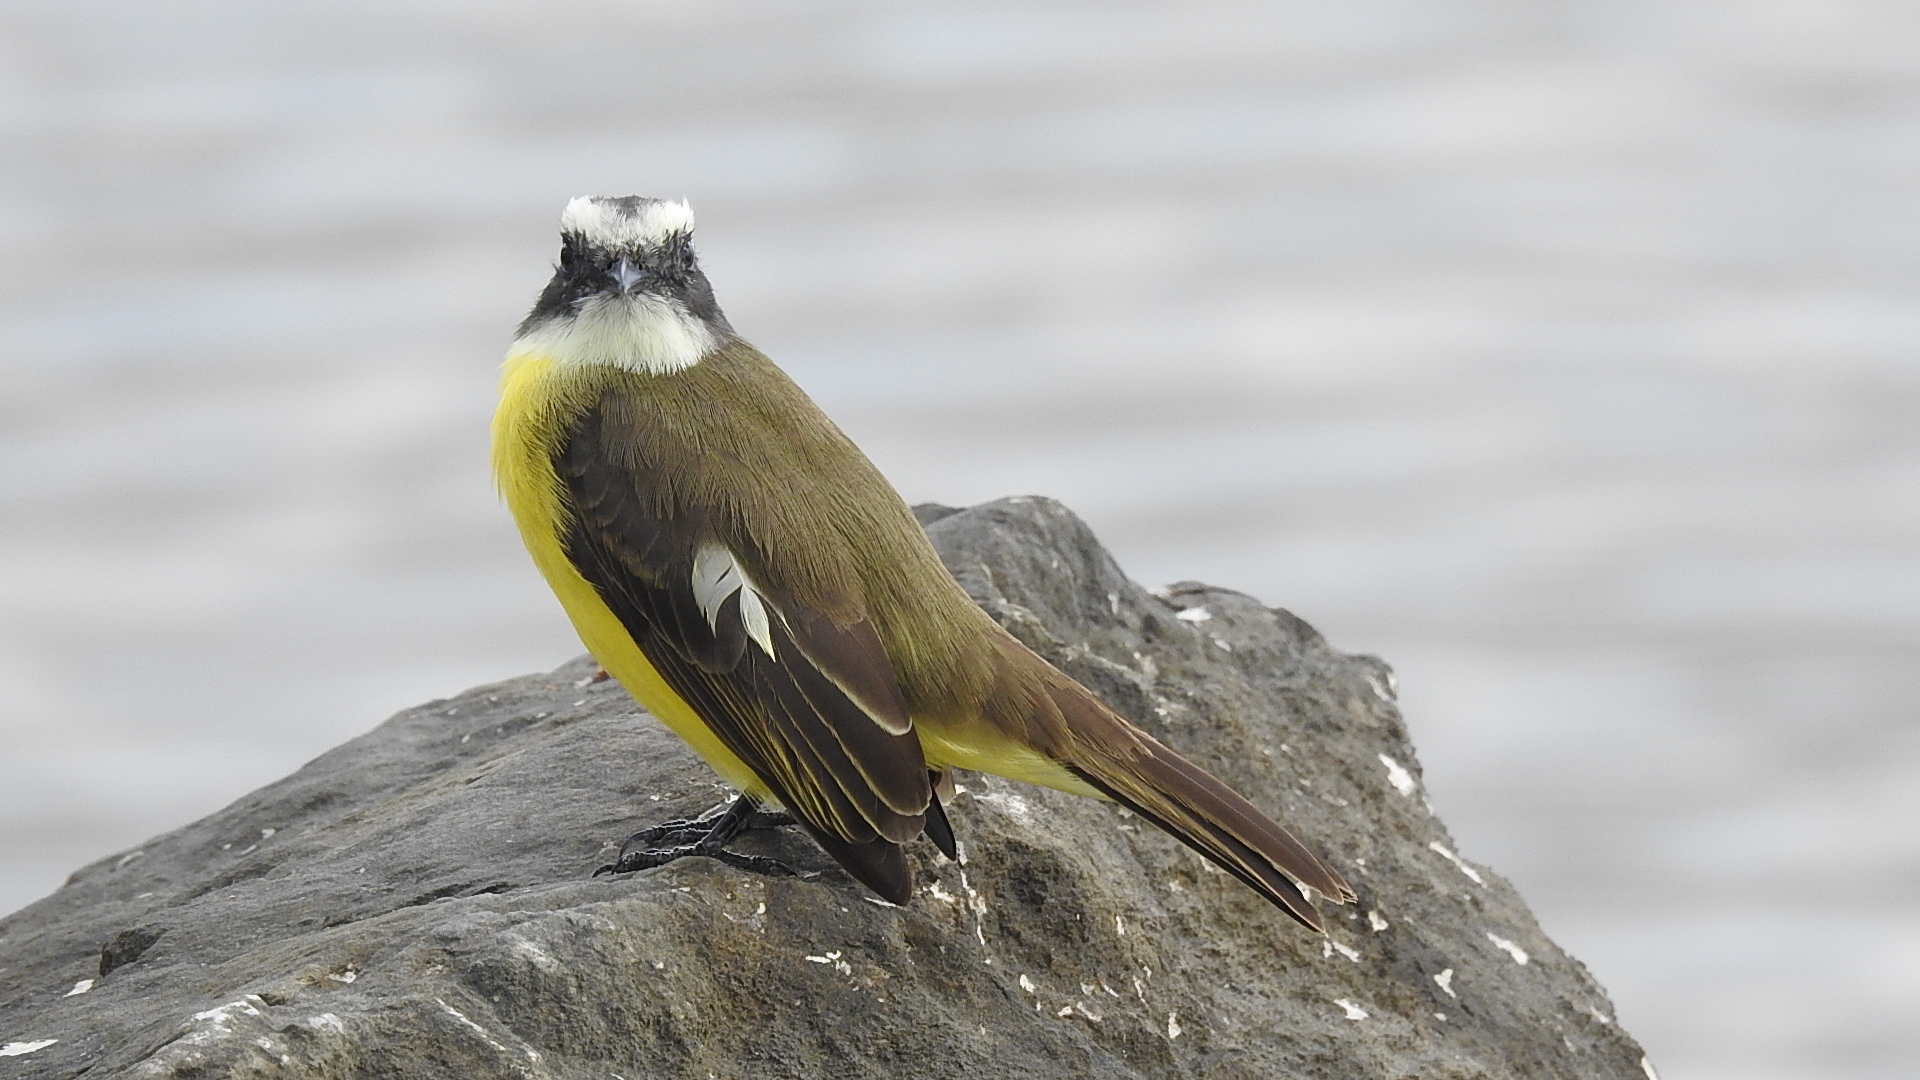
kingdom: Animalia
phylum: Chordata
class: Aves
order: Passeriformes
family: Tyrannidae
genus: Myiozetetes
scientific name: Myiozetetes similis
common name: Social flycatcher
